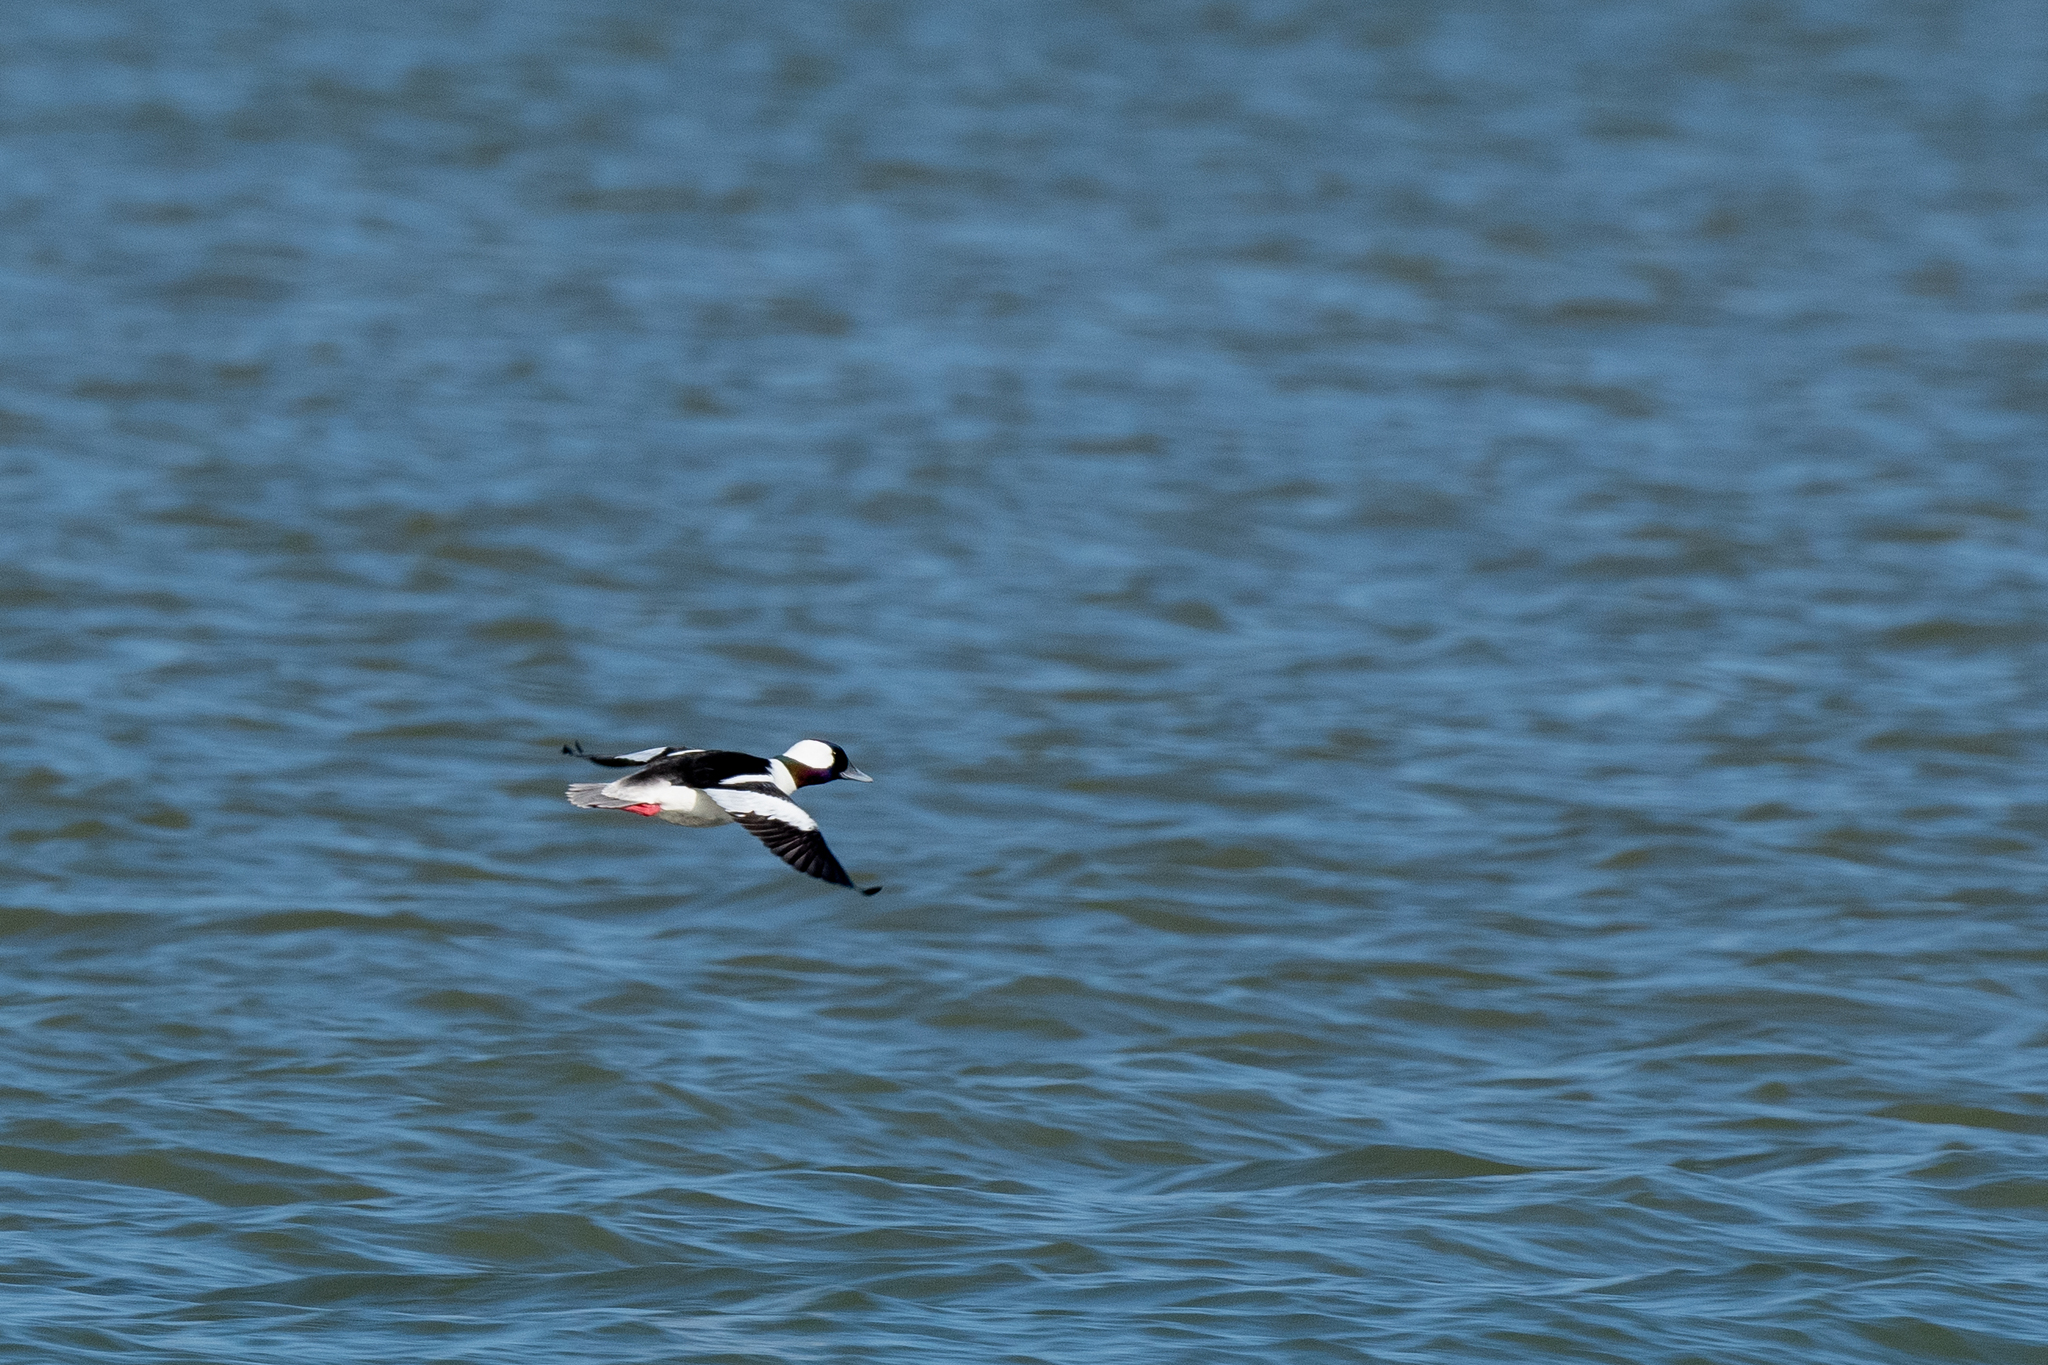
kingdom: Animalia
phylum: Chordata
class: Aves
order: Anseriformes
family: Anatidae
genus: Bucephala
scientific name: Bucephala albeola
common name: Bufflehead
